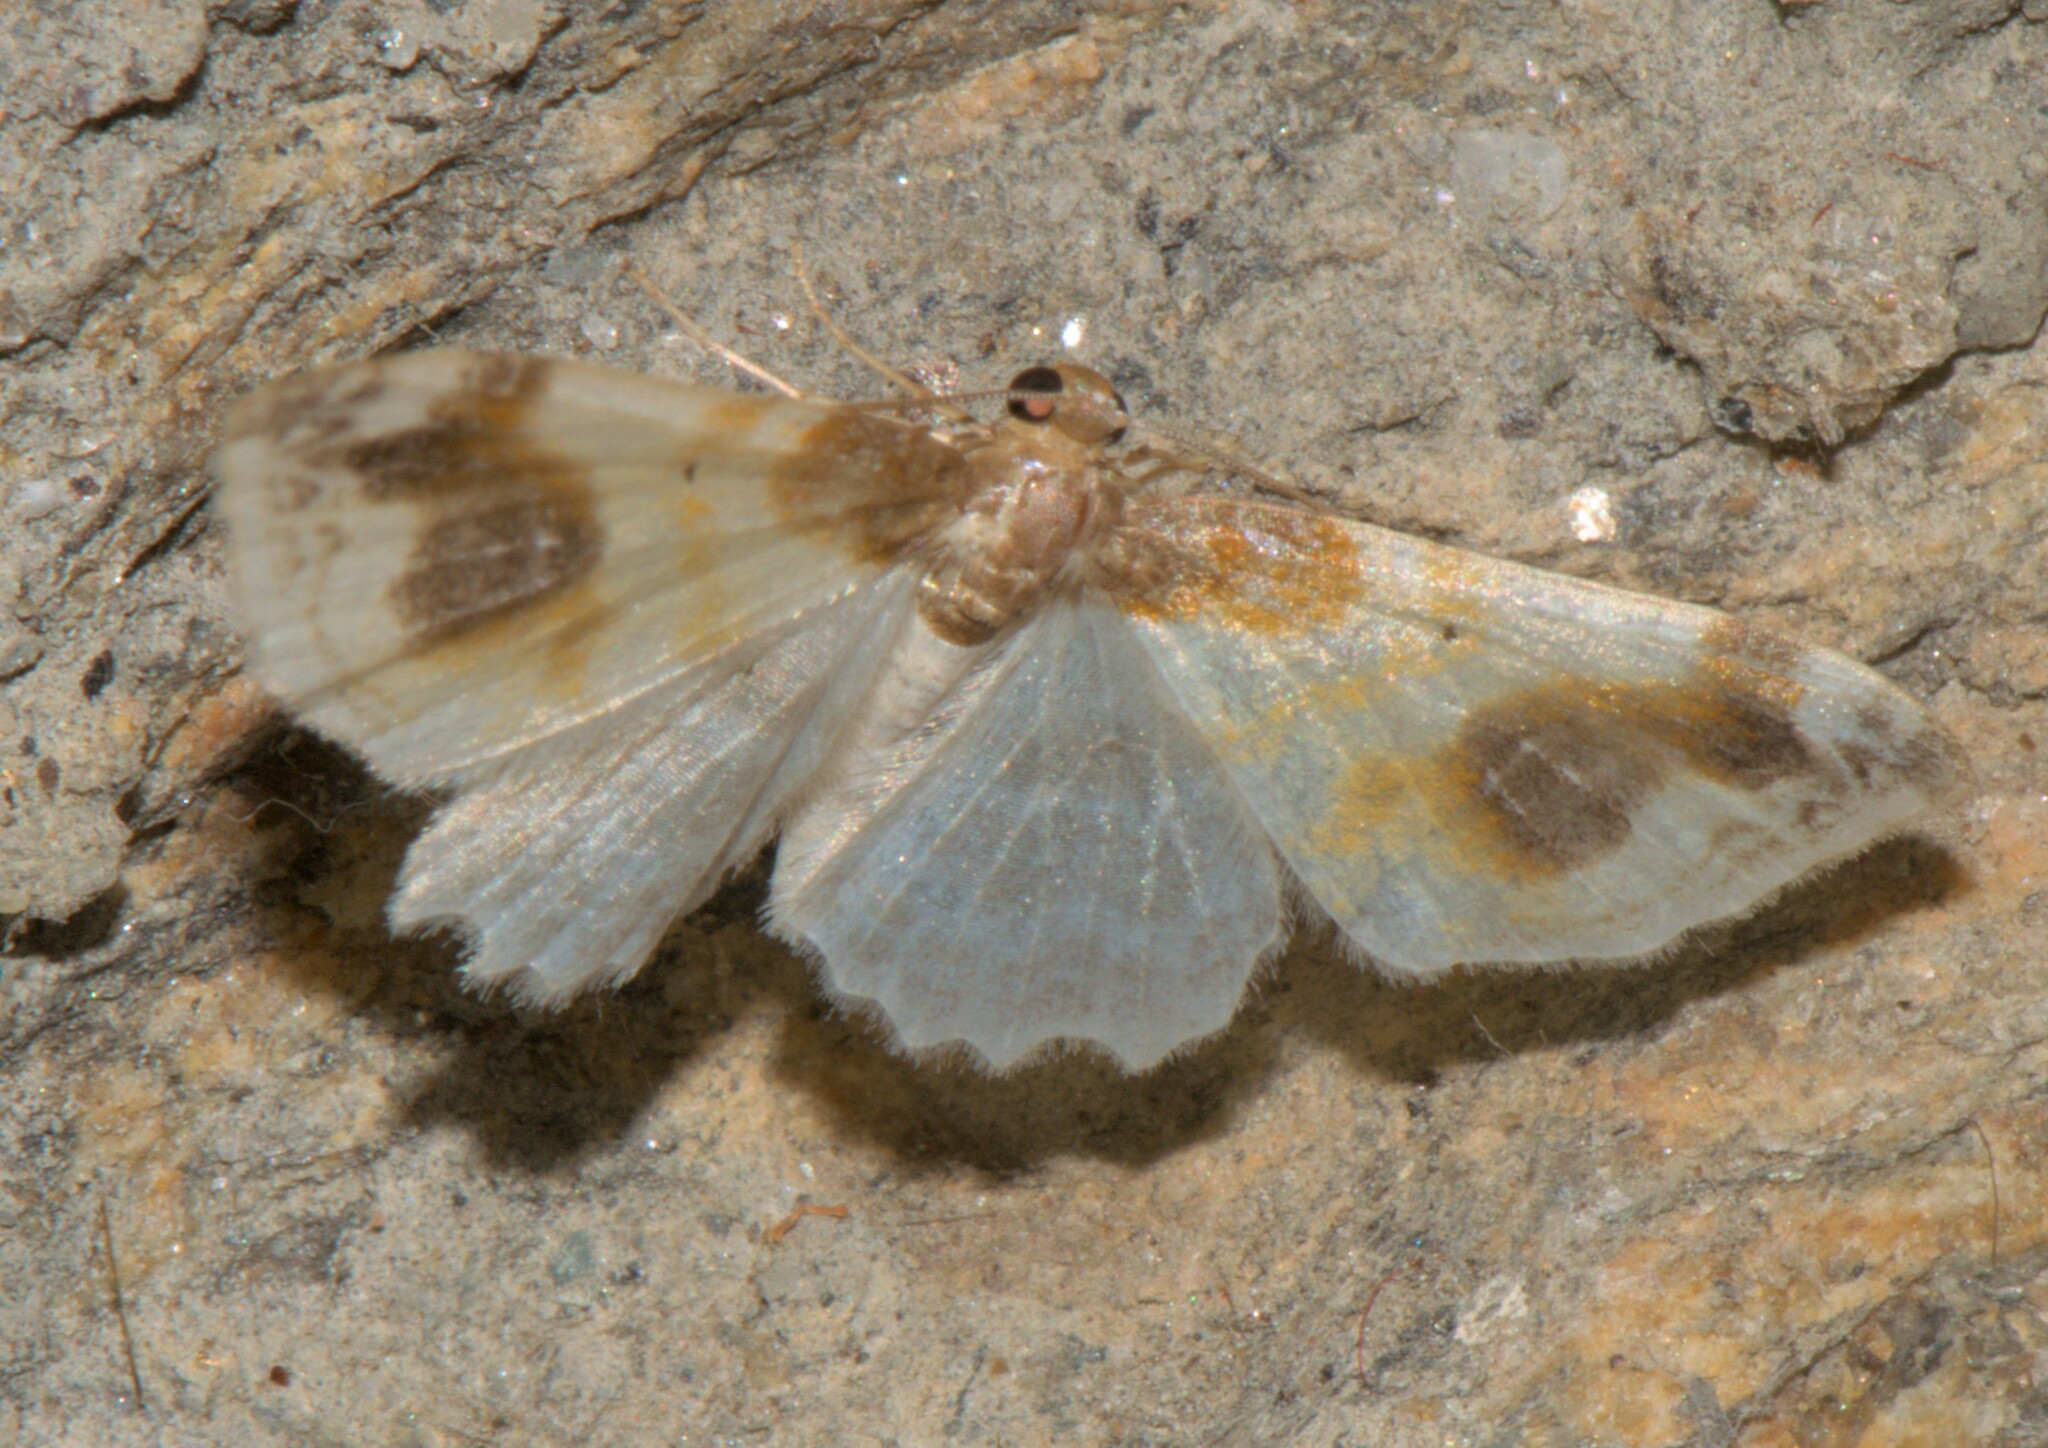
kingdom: Animalia
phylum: Arthropoda
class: Insecta
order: Lepidoptera
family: Geometridae
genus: Agnibesa
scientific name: Agnibesa pictaria
